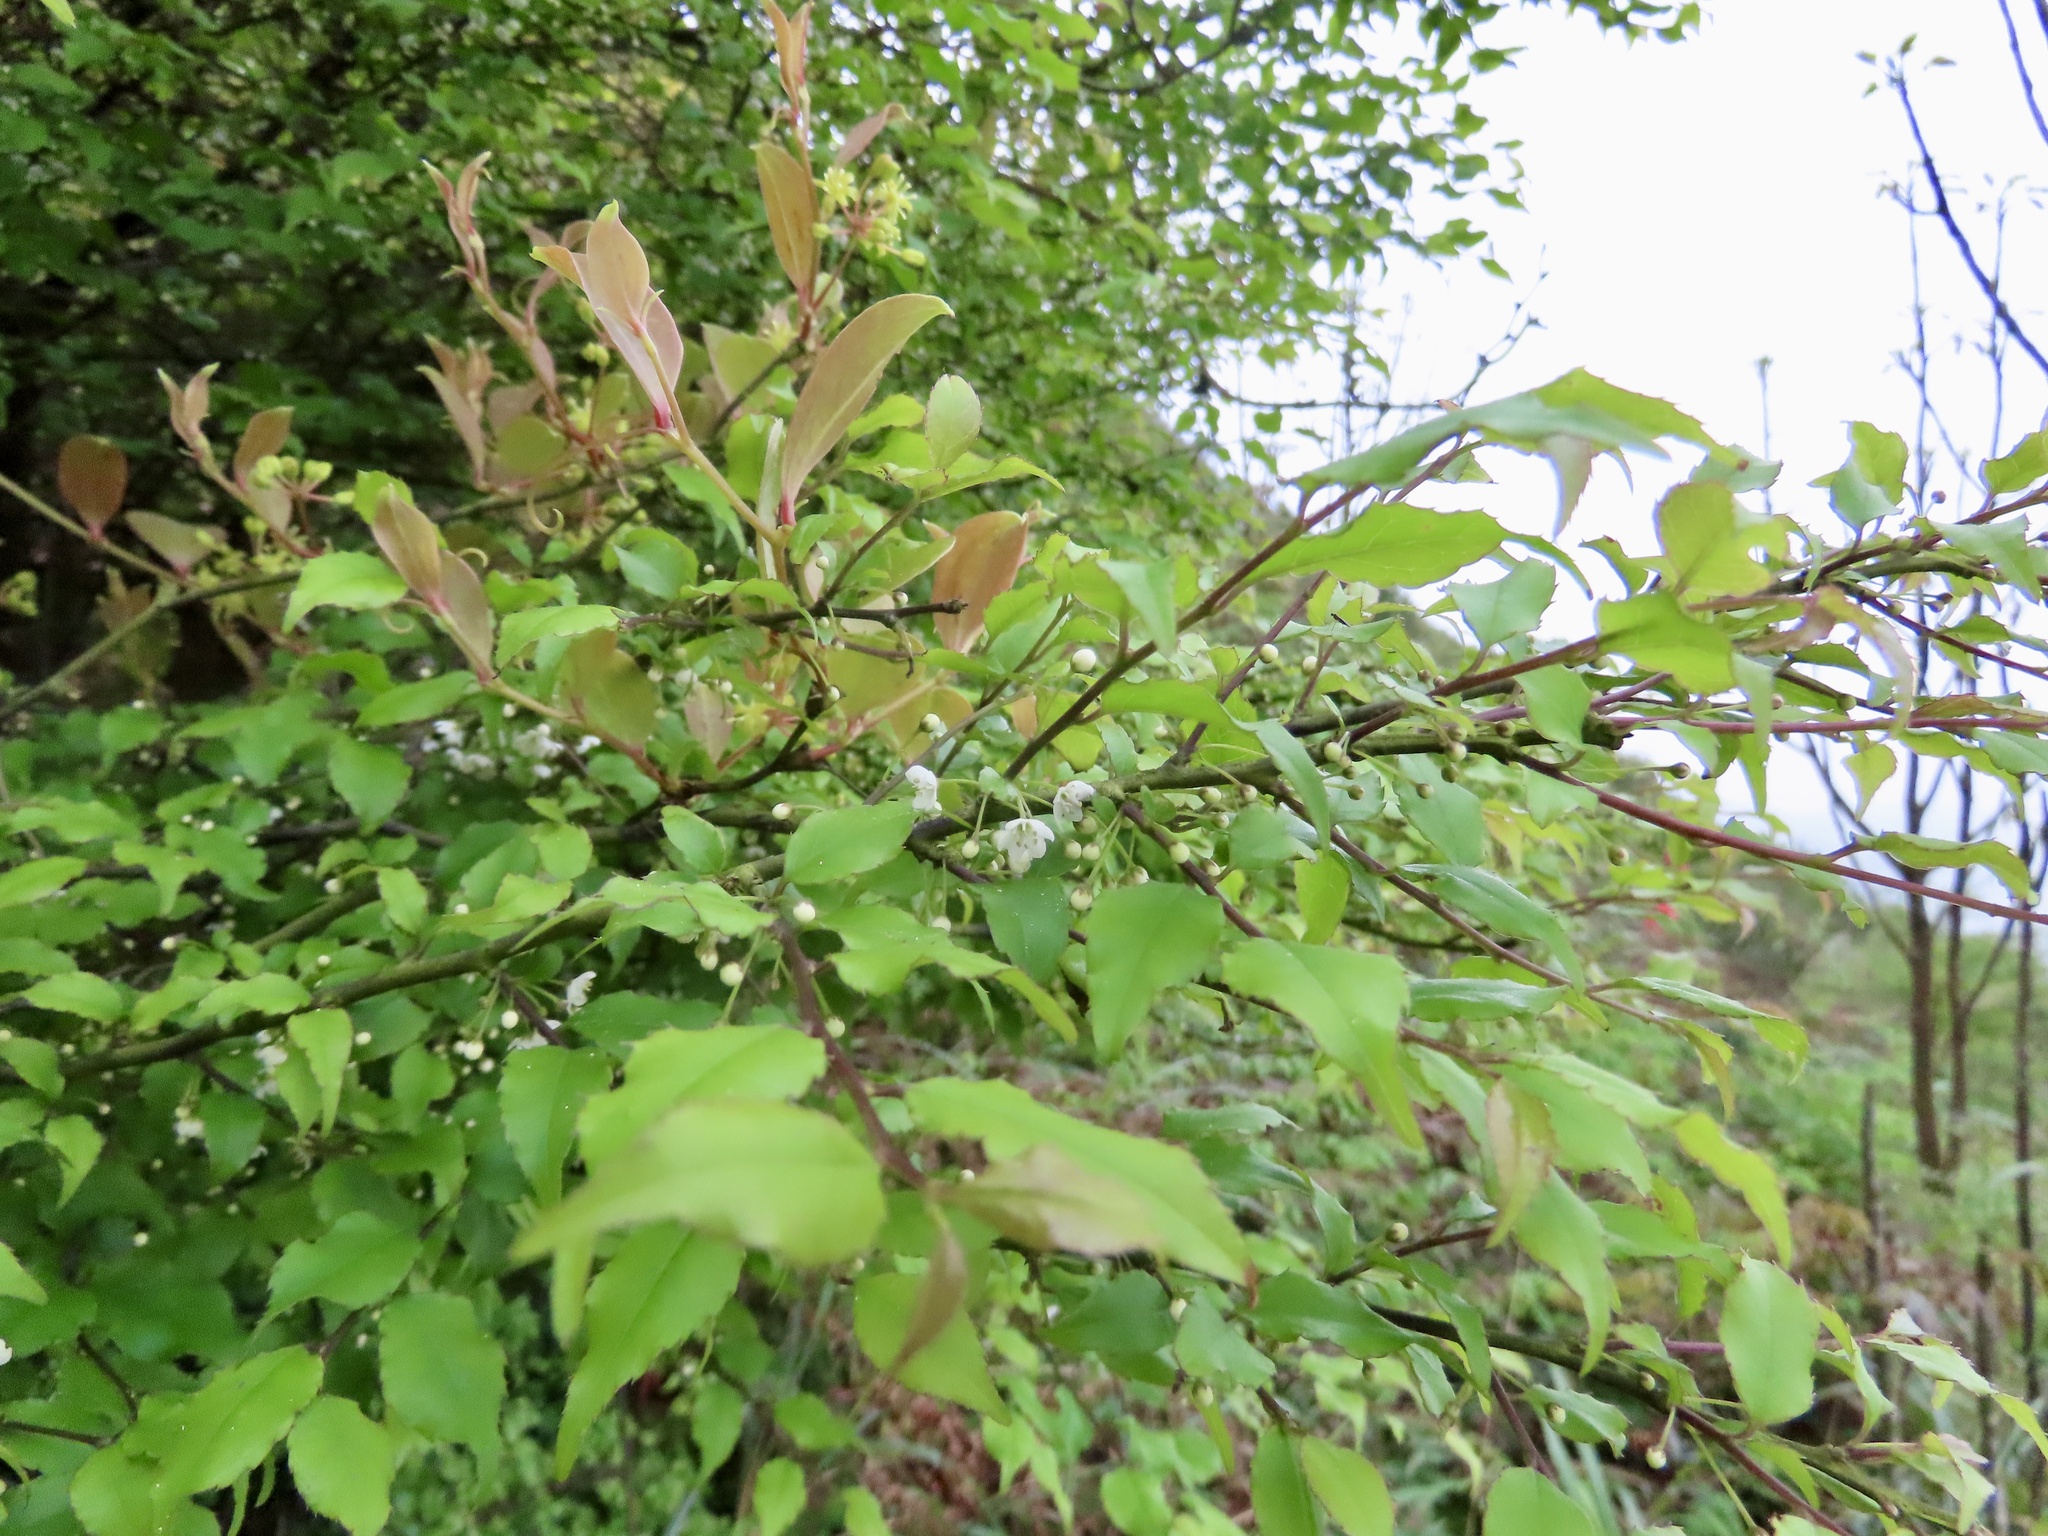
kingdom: Plantae
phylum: Tracheophyta
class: Magnoliopsida
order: Aquifoliales
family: Aquifoliaceae
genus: Ilex
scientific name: Ilex asprella
